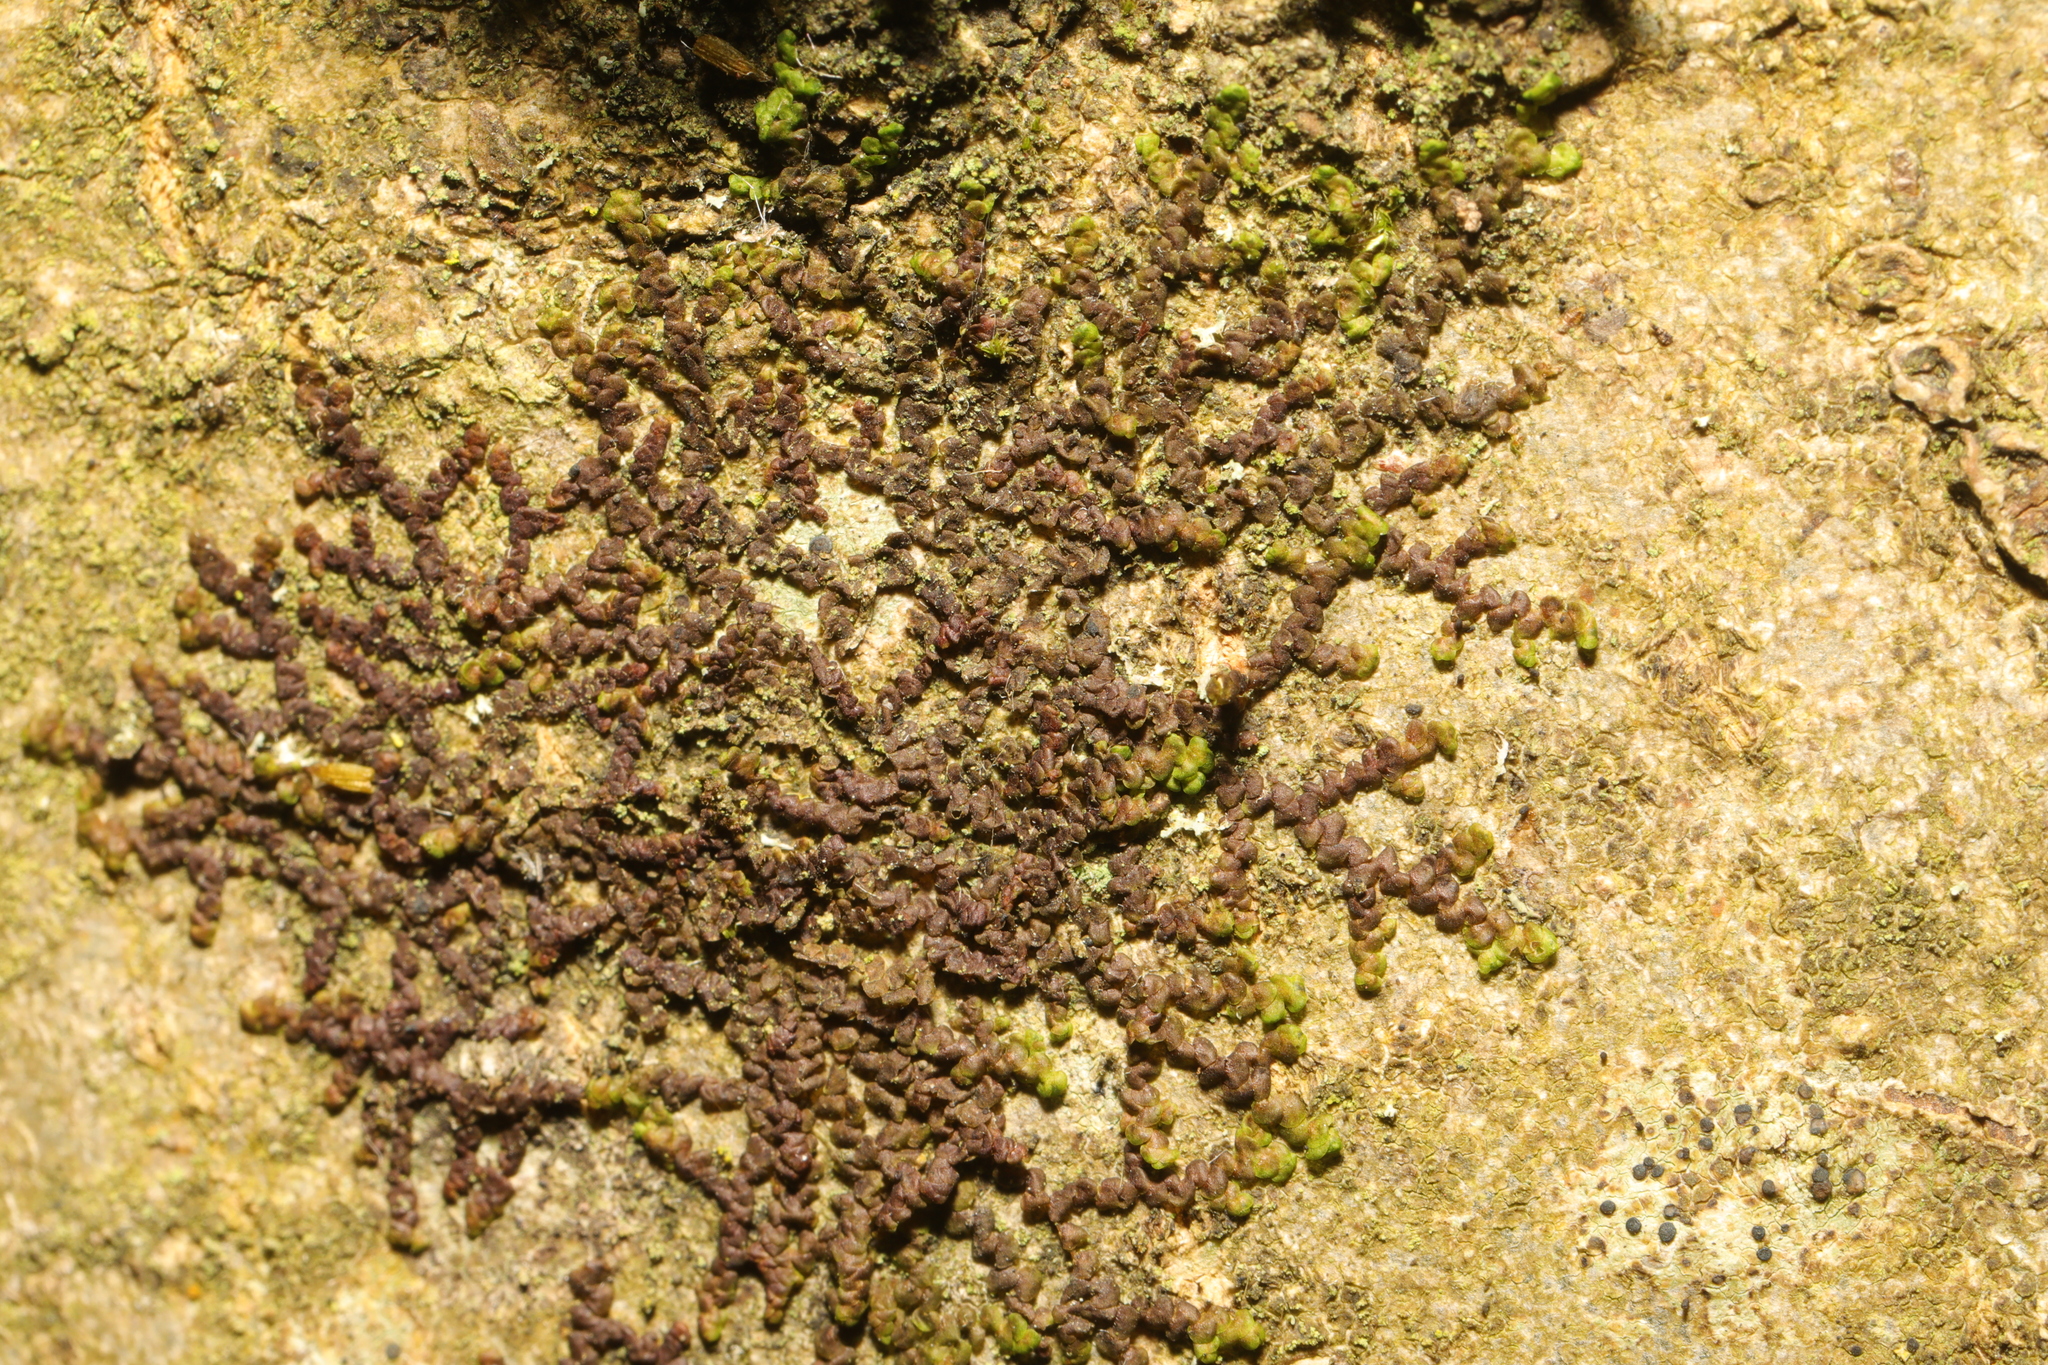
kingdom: Plantae
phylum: Marchantiophyta
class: Jungermanniopsida
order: Porellales
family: Frullaniaceae
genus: Frullania
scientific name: Frullania dilatata
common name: Dilated scalewort
